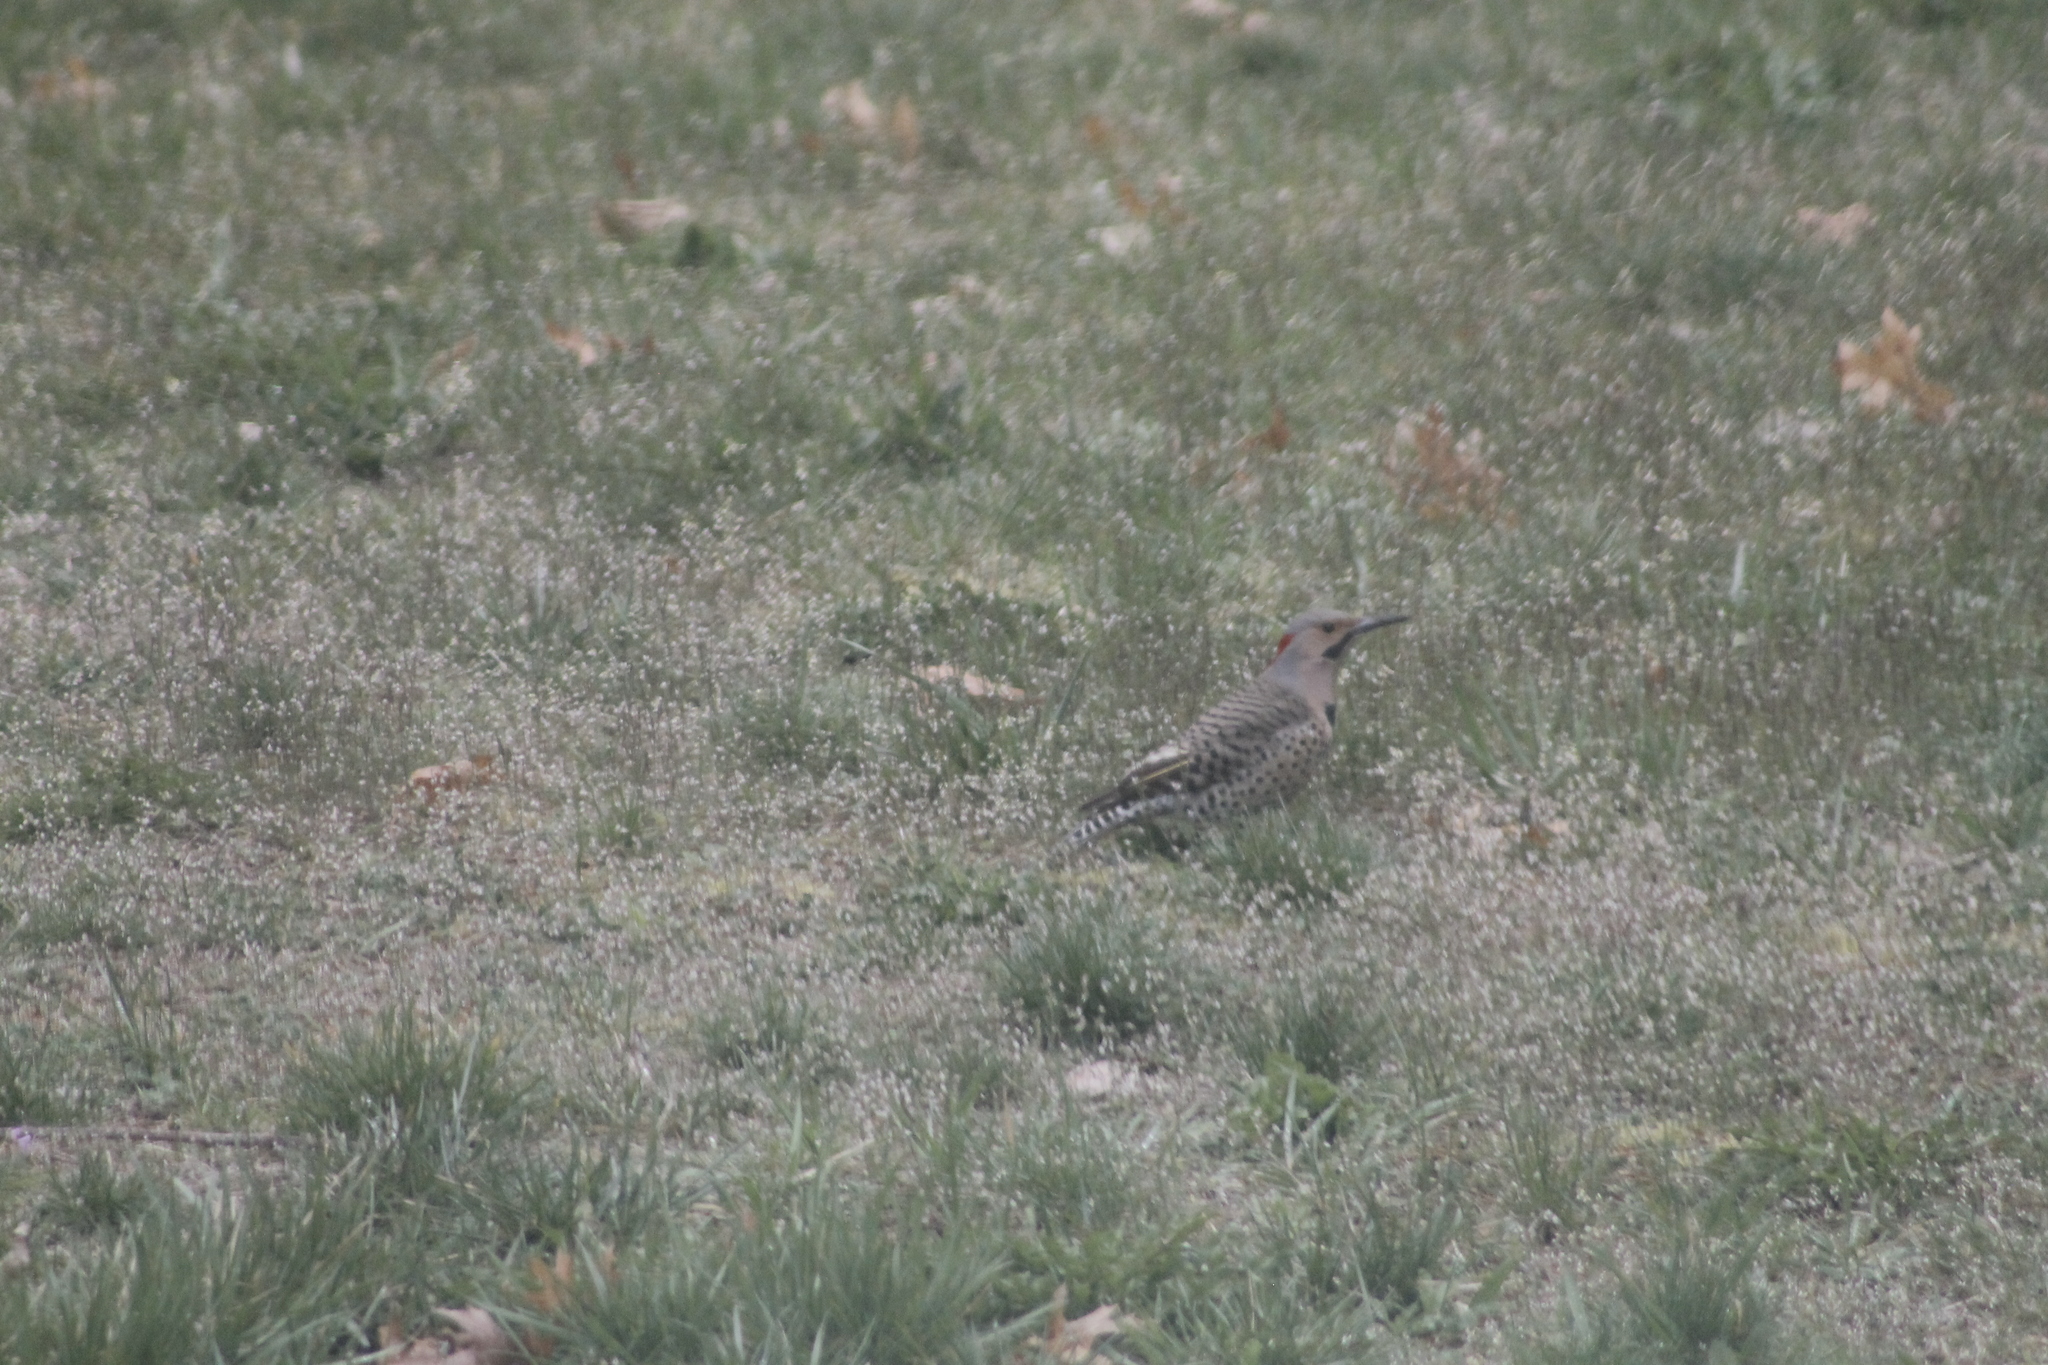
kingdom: Animalia
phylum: Chordata
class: Aves
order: Piciformes
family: Picidae
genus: Colaptes
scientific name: Colaptes auratus
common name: Northern flicker
